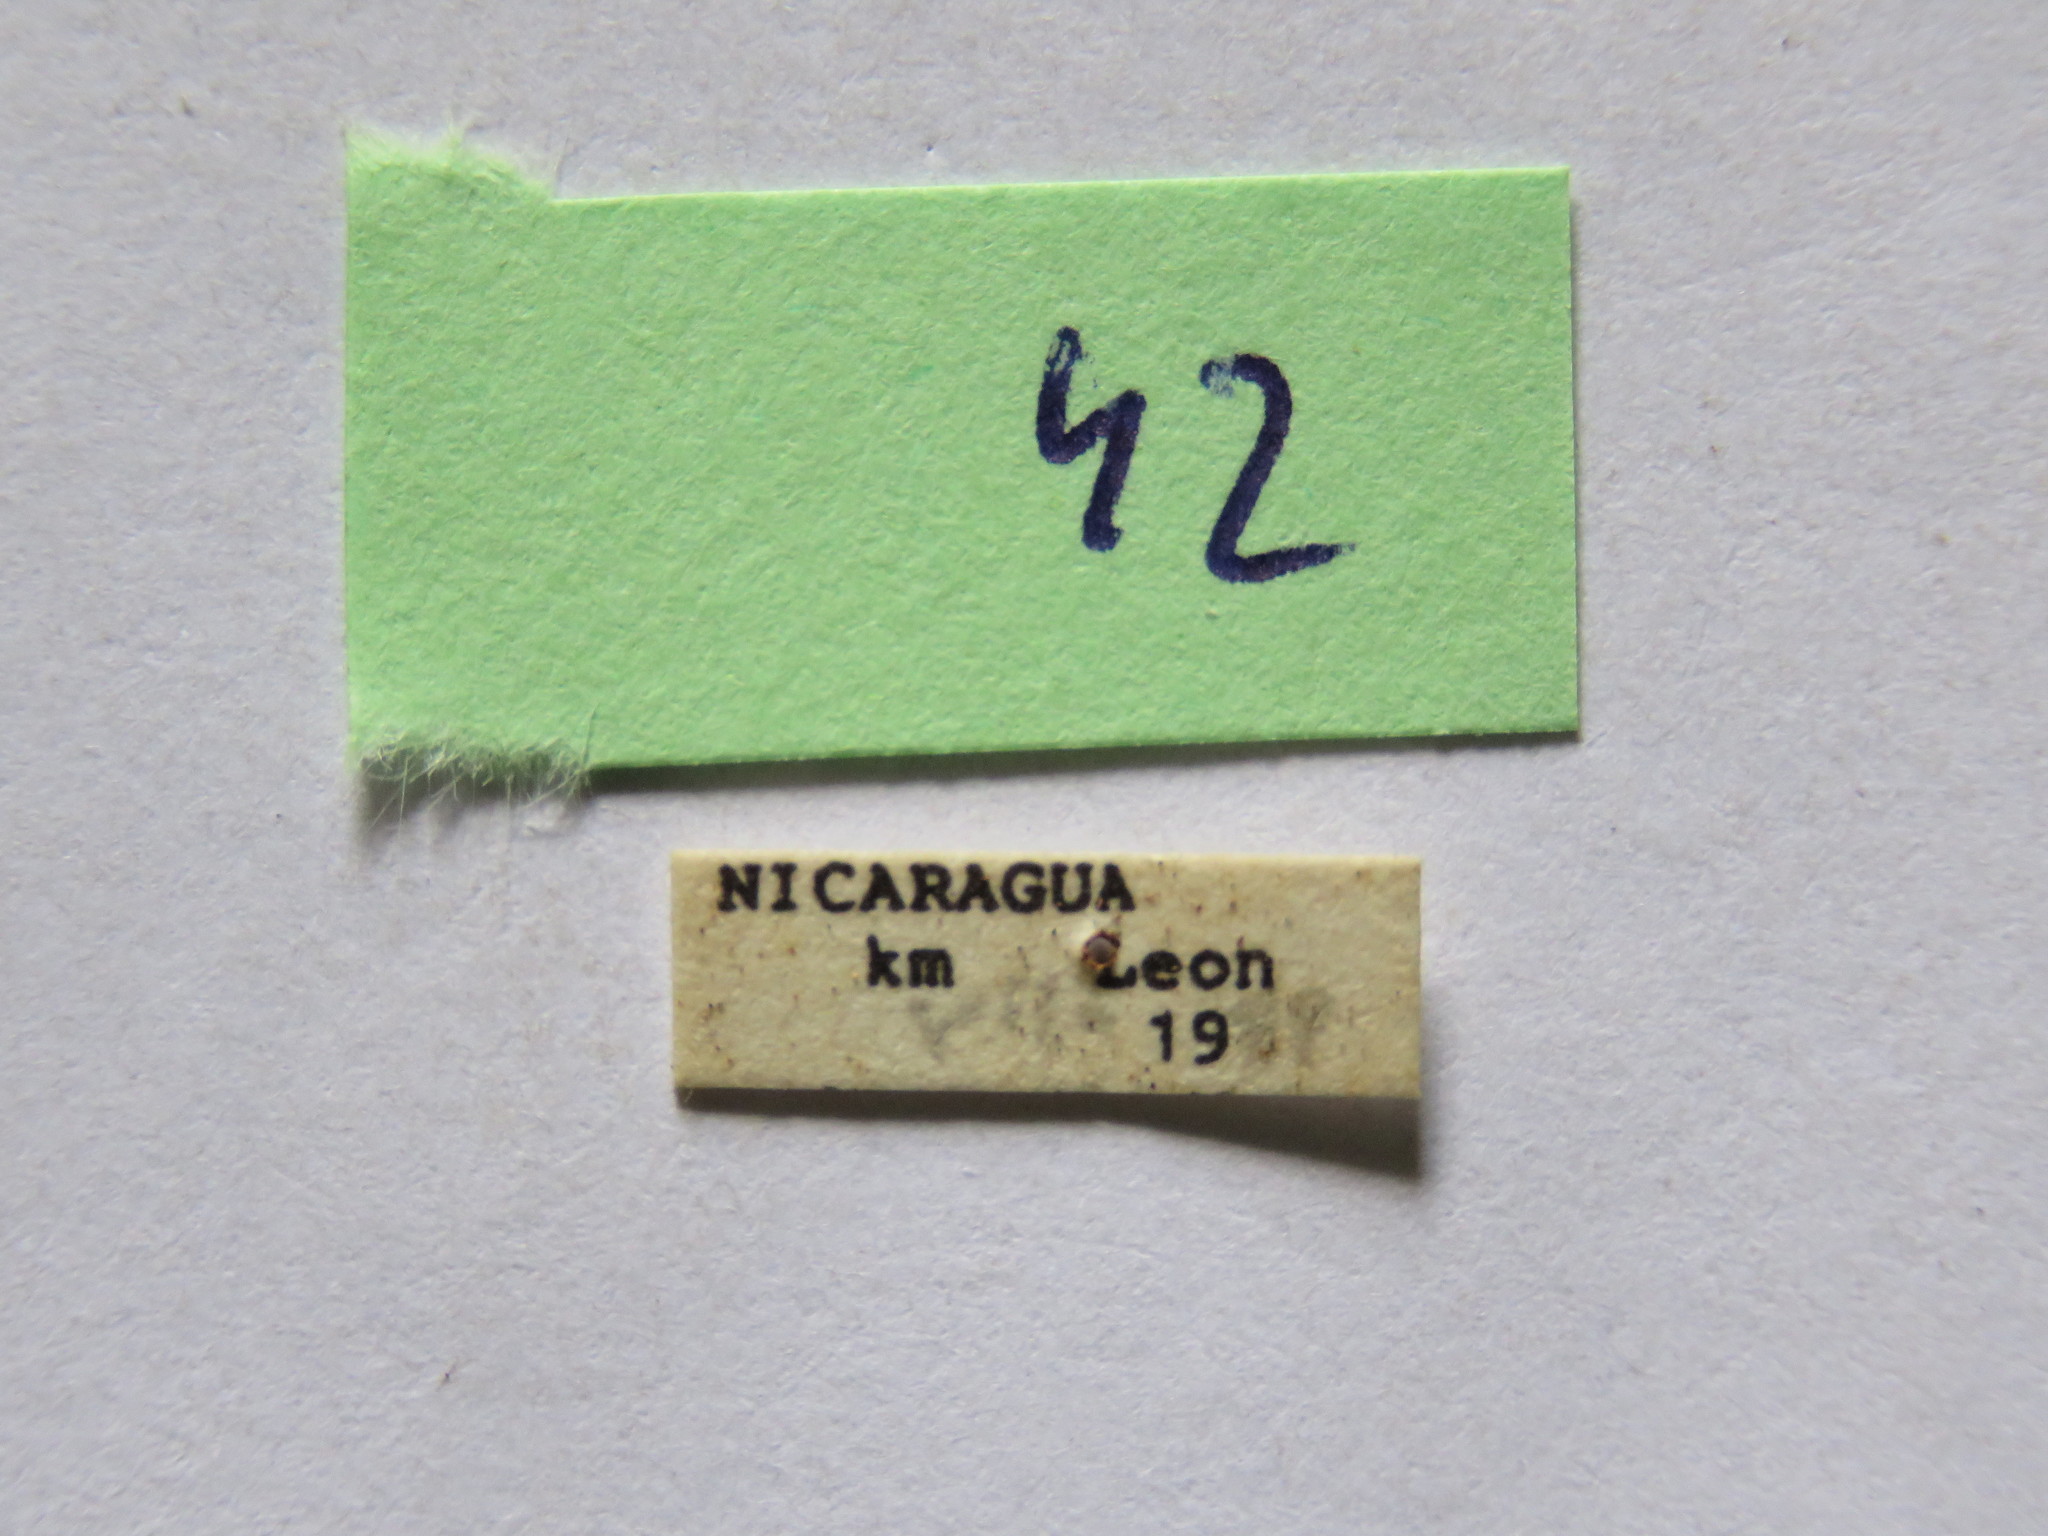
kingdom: Animalia
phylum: Arthropoda
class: Insecta
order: Hemiptera
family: Coreidae
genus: Mozena
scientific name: Mozena lurida
